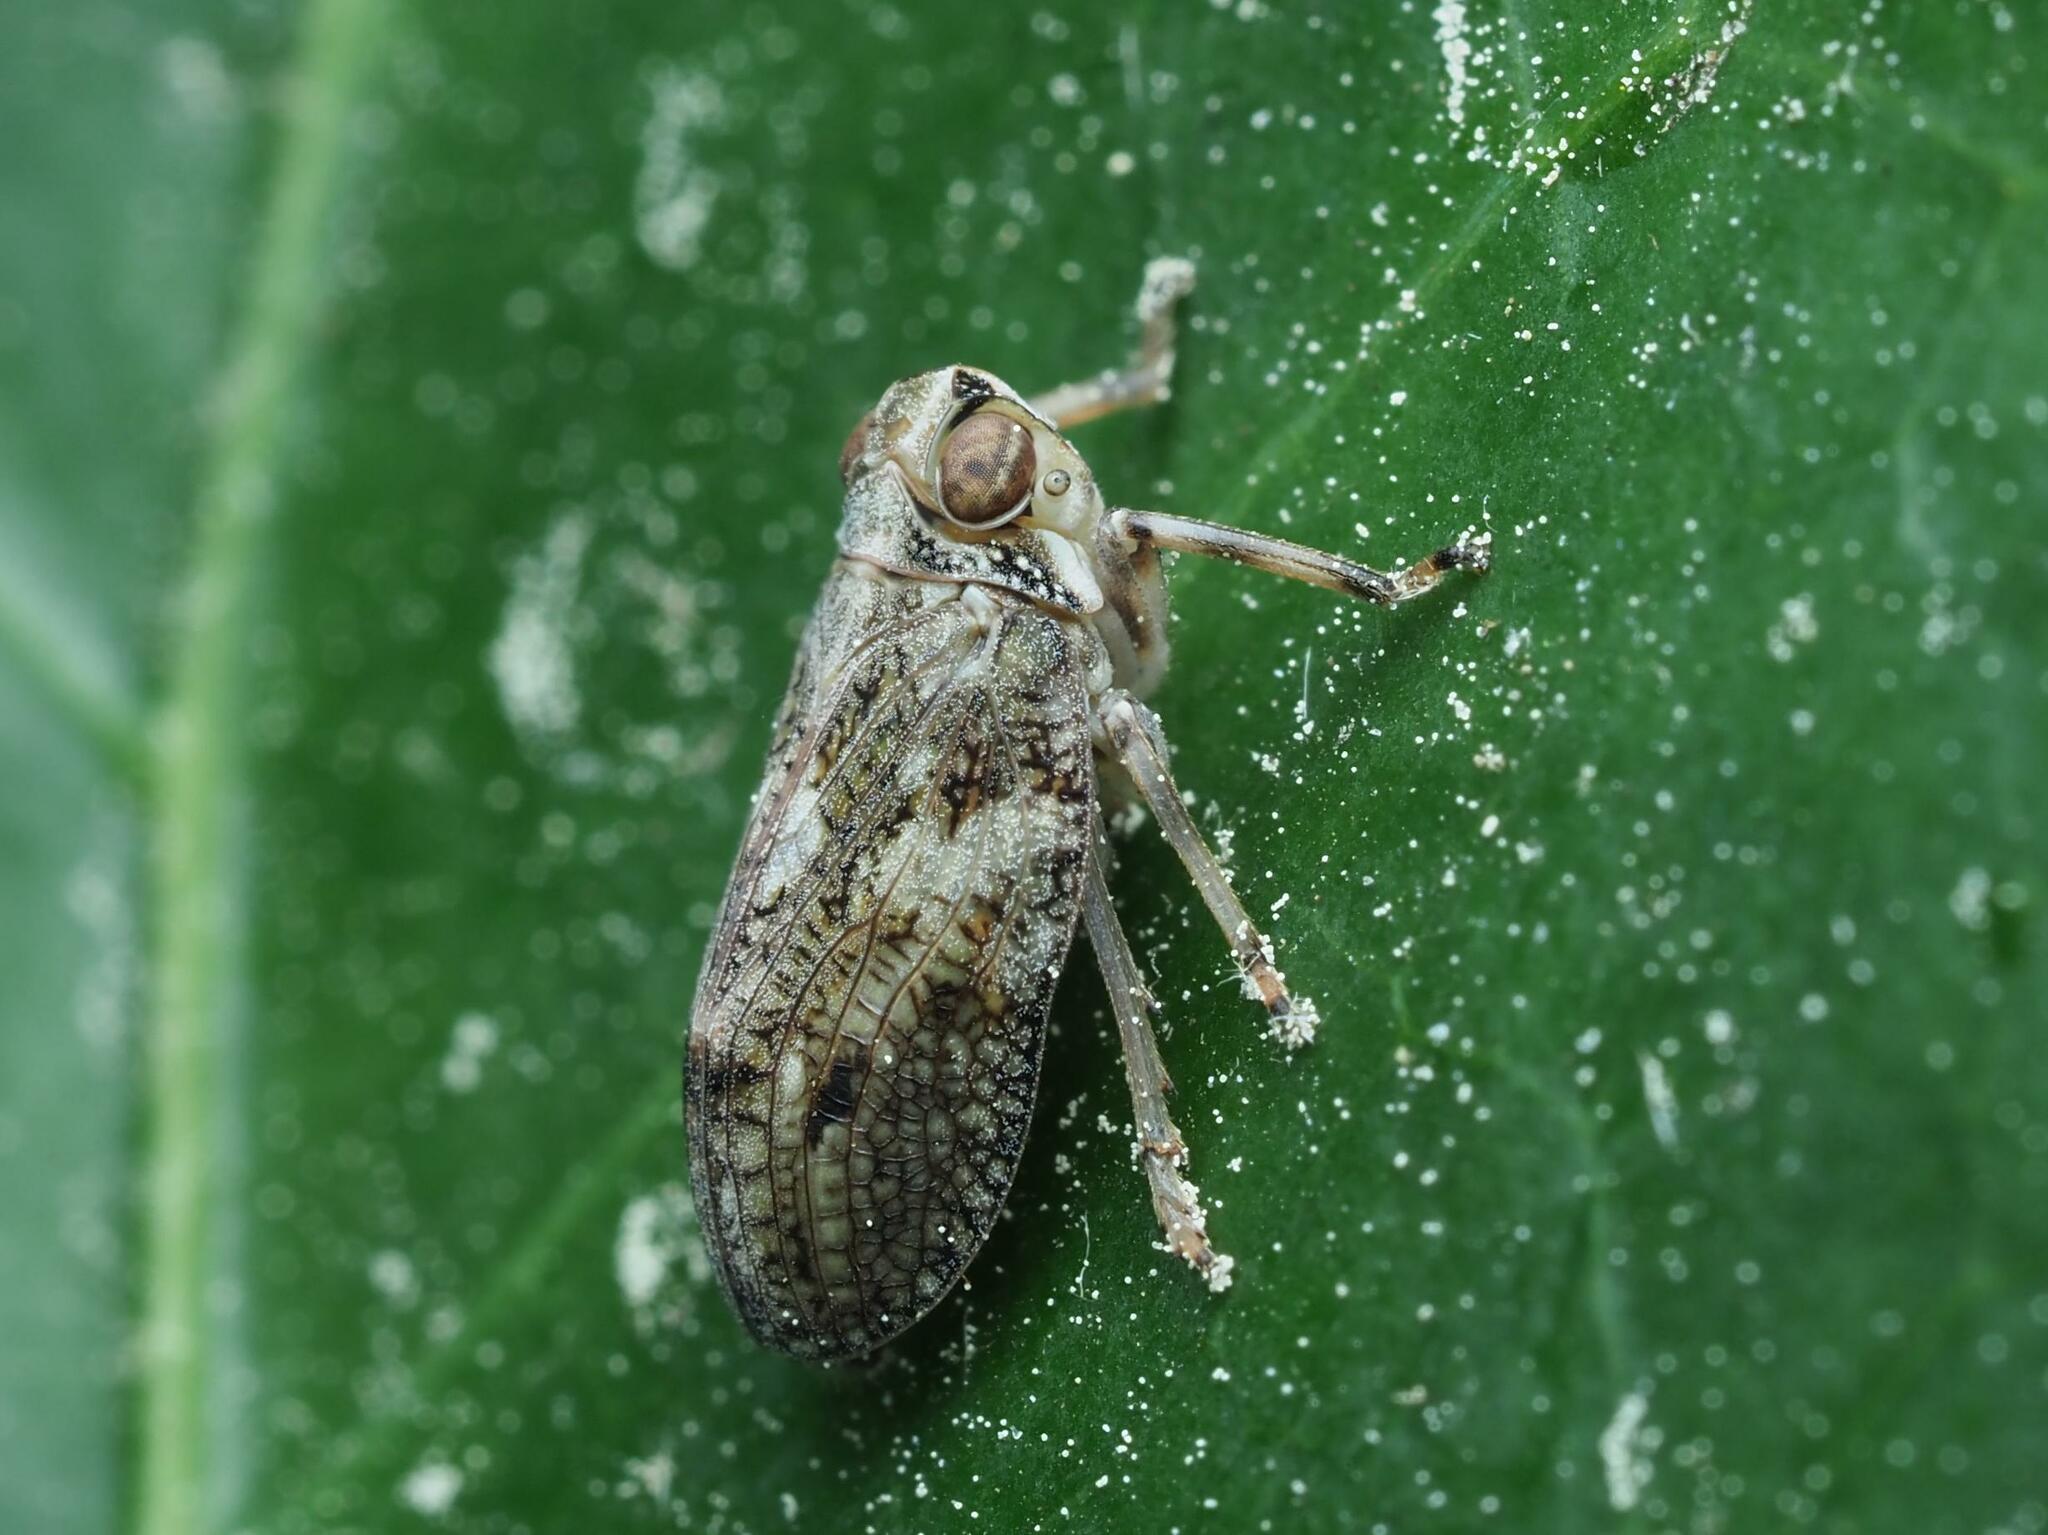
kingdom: Animalia
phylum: Arthropoda
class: Insecta
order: Hemiptera
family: Issidae
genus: Issus
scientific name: Issus coleoptratus
